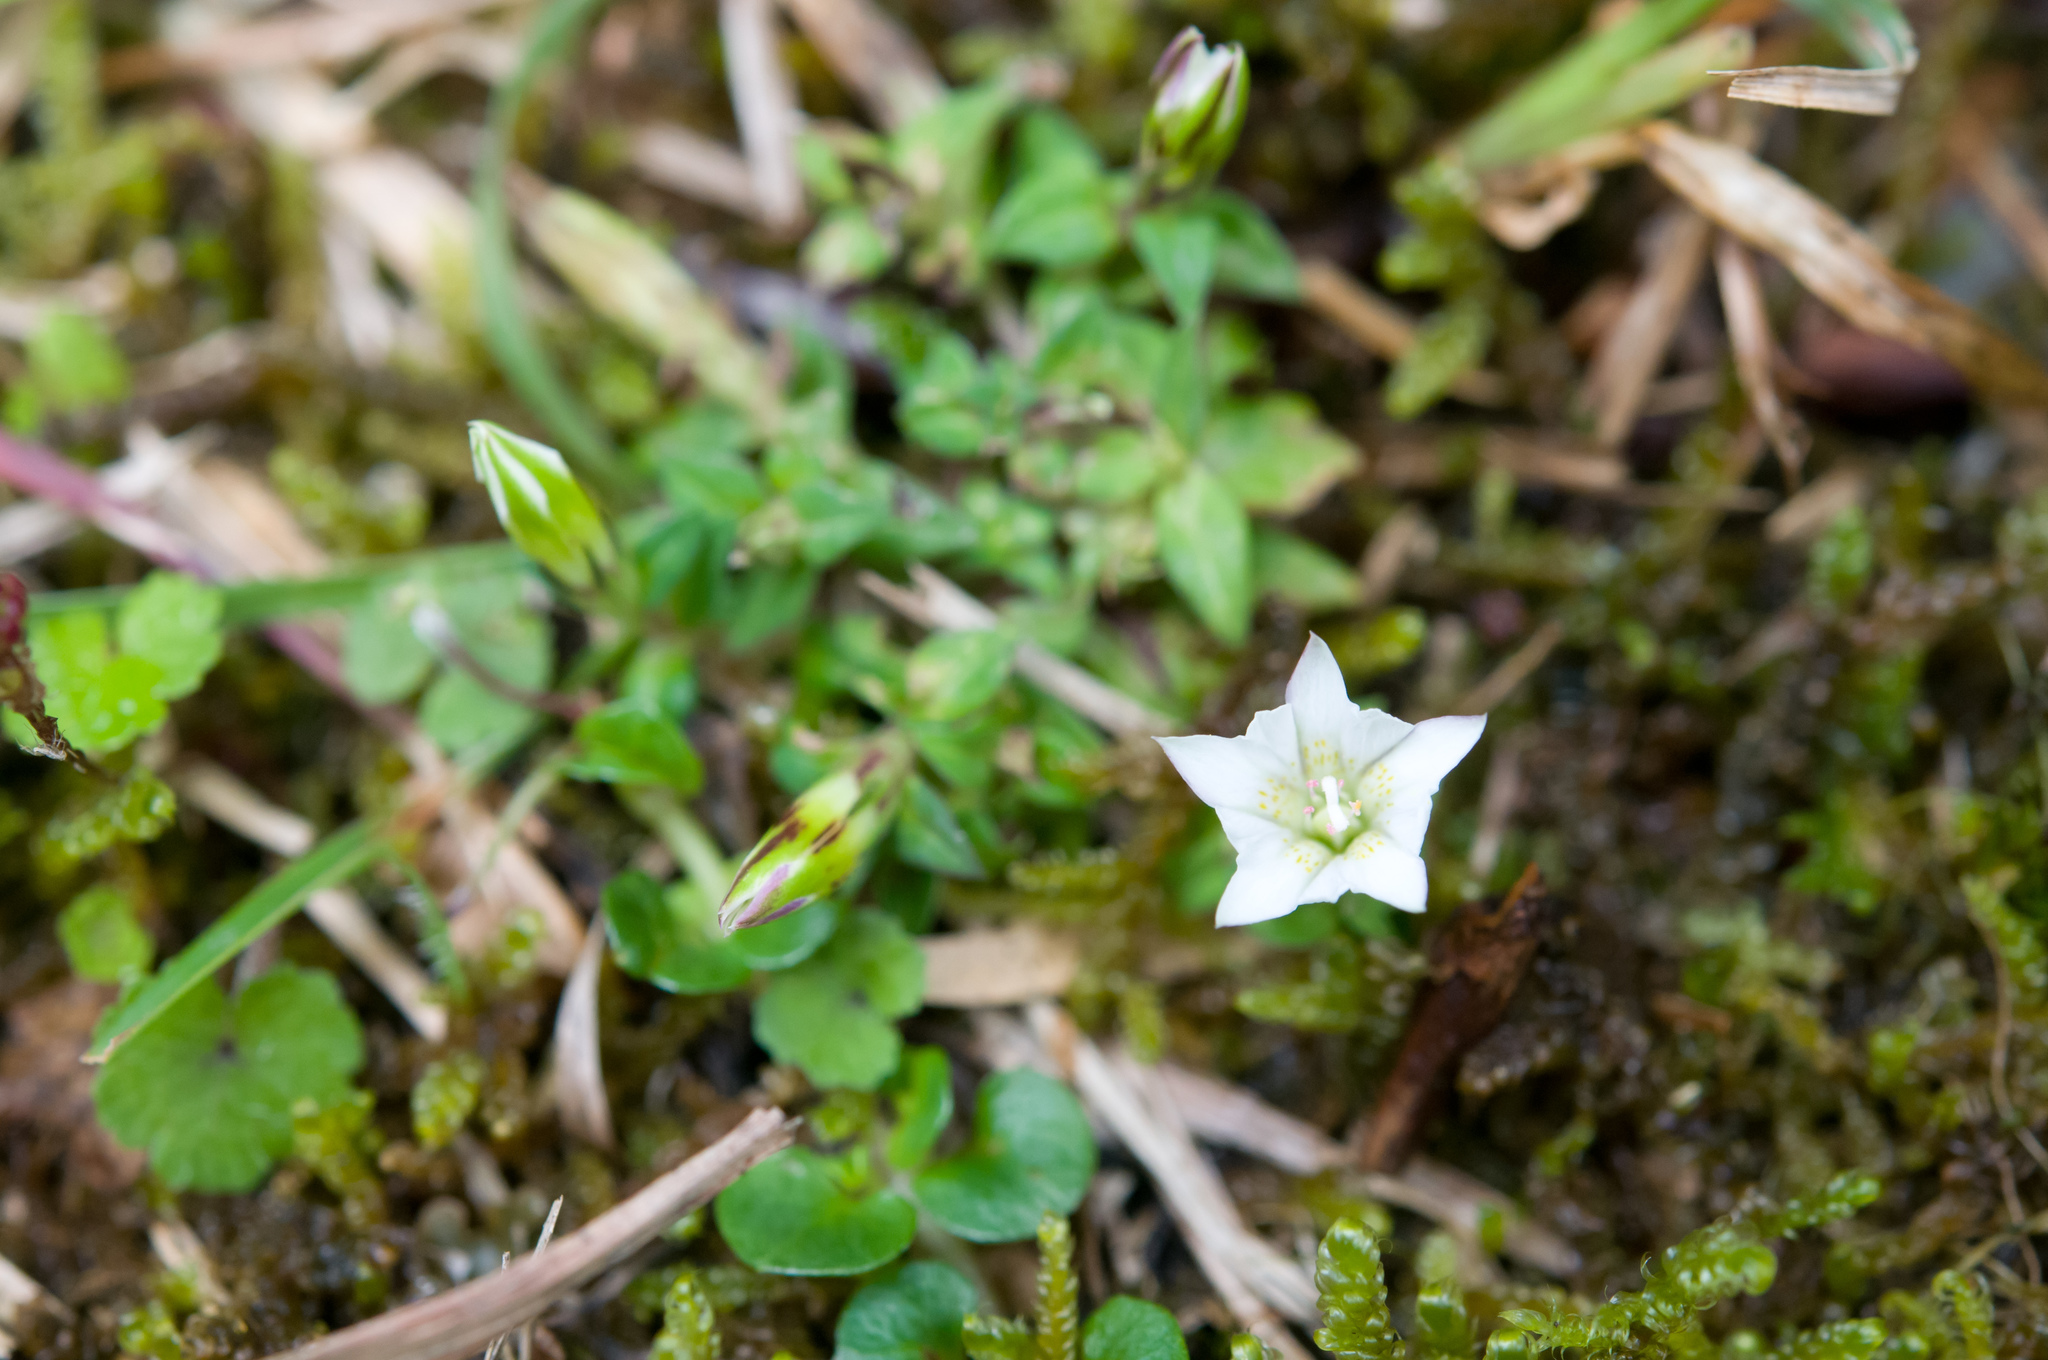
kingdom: Plantae
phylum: Tracheophyta
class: Magnoliopsida
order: Gentianales
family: Gentianaceae
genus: Gentiana
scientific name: Gentiana flavomaculata
